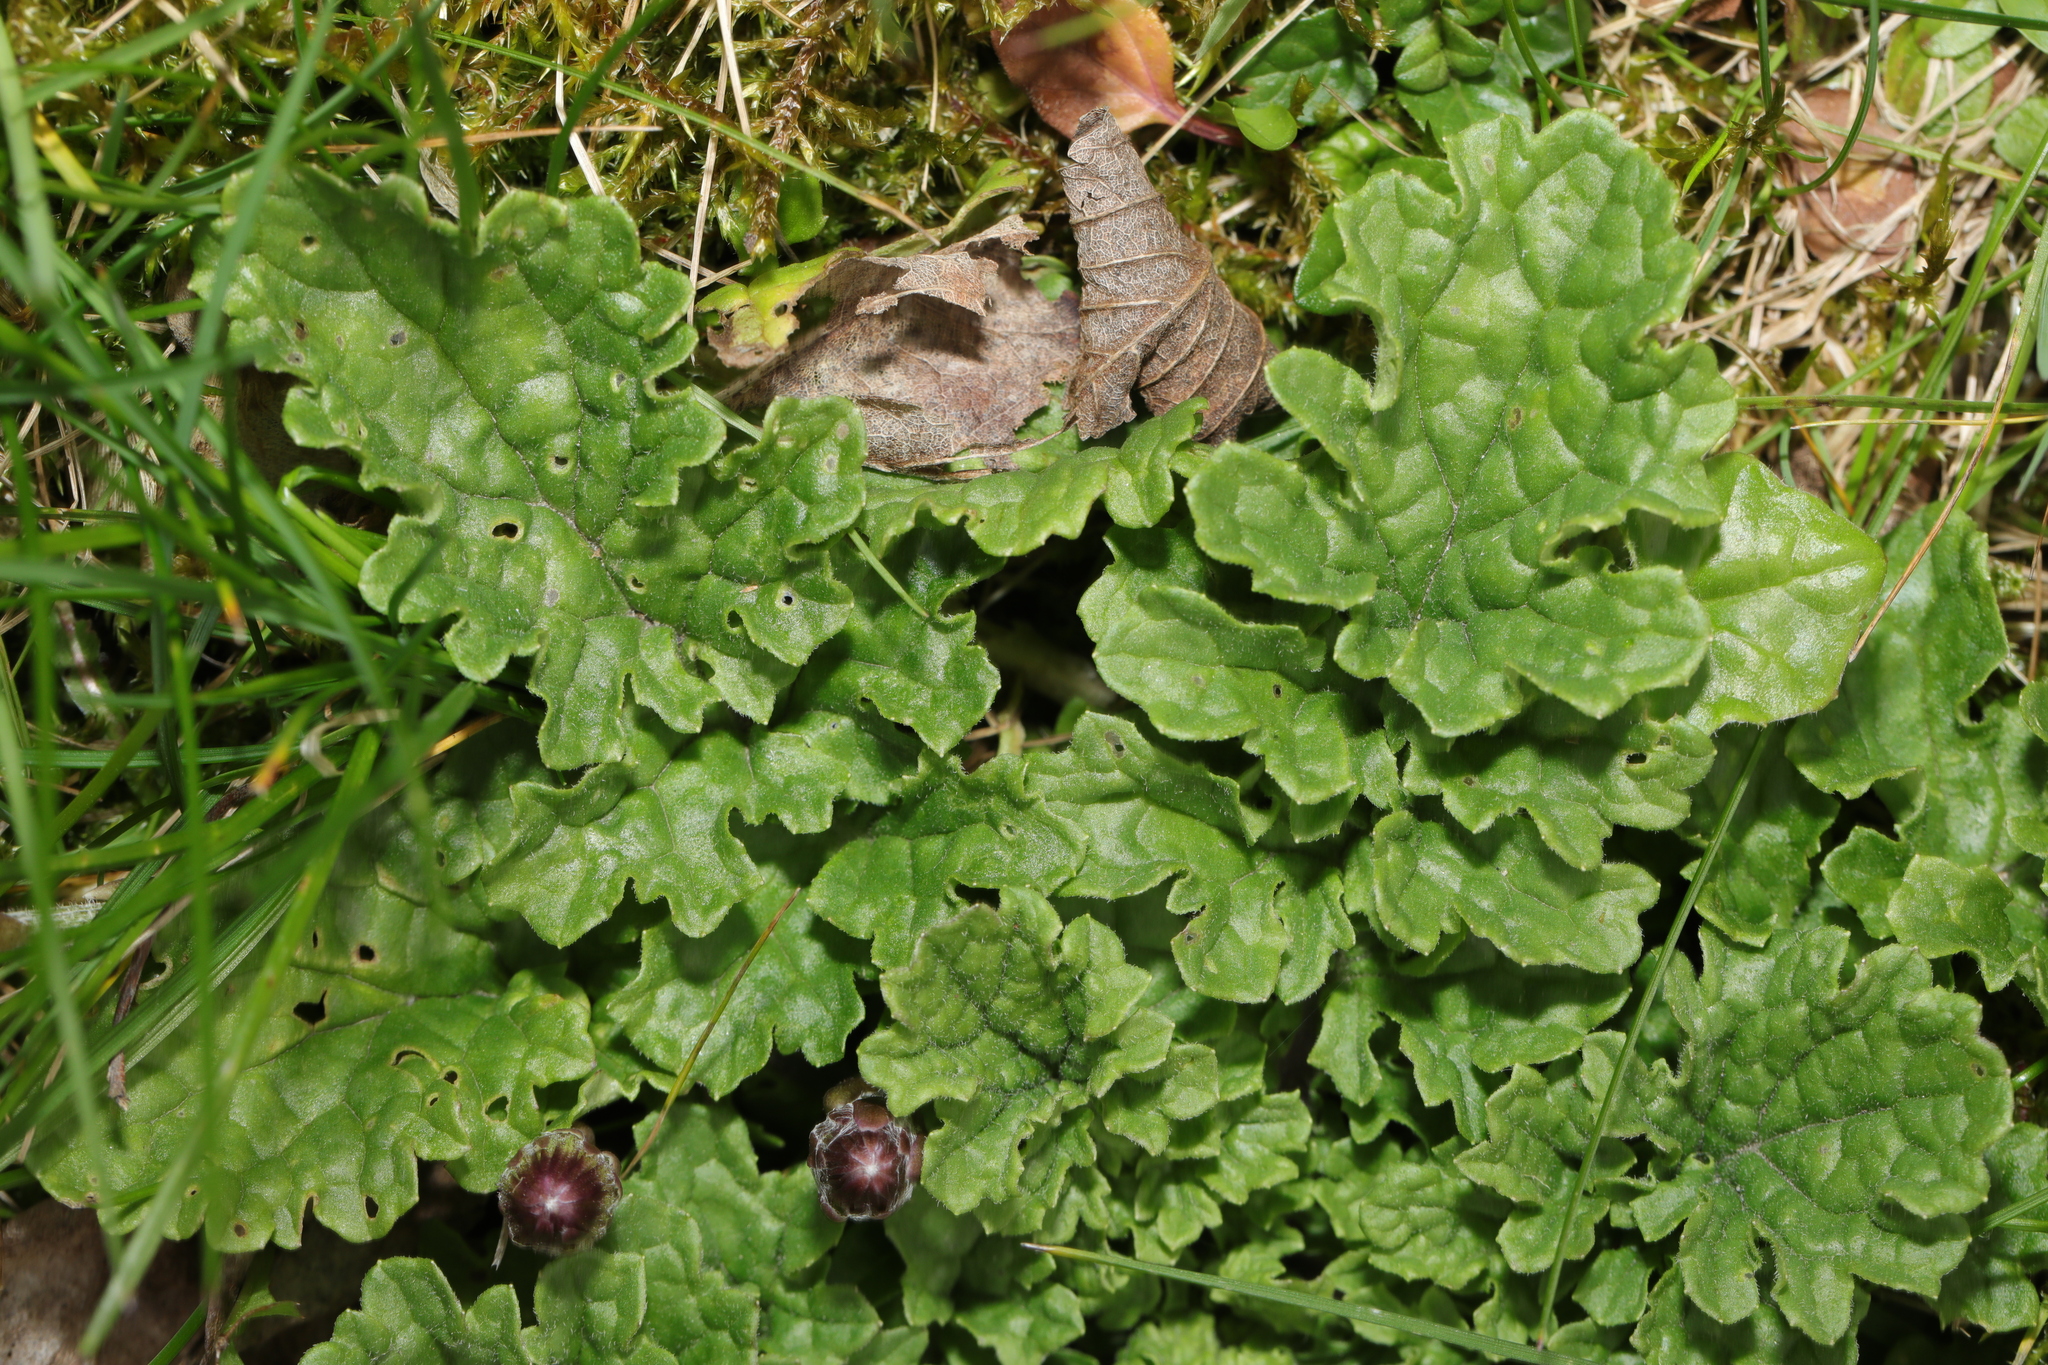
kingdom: Plantae
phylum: Tracheophyta
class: Magnoliopsida
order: Asterales
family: Asteraceae
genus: Jacobaea
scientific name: Jacobaea vulgaris
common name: Stinking willie
